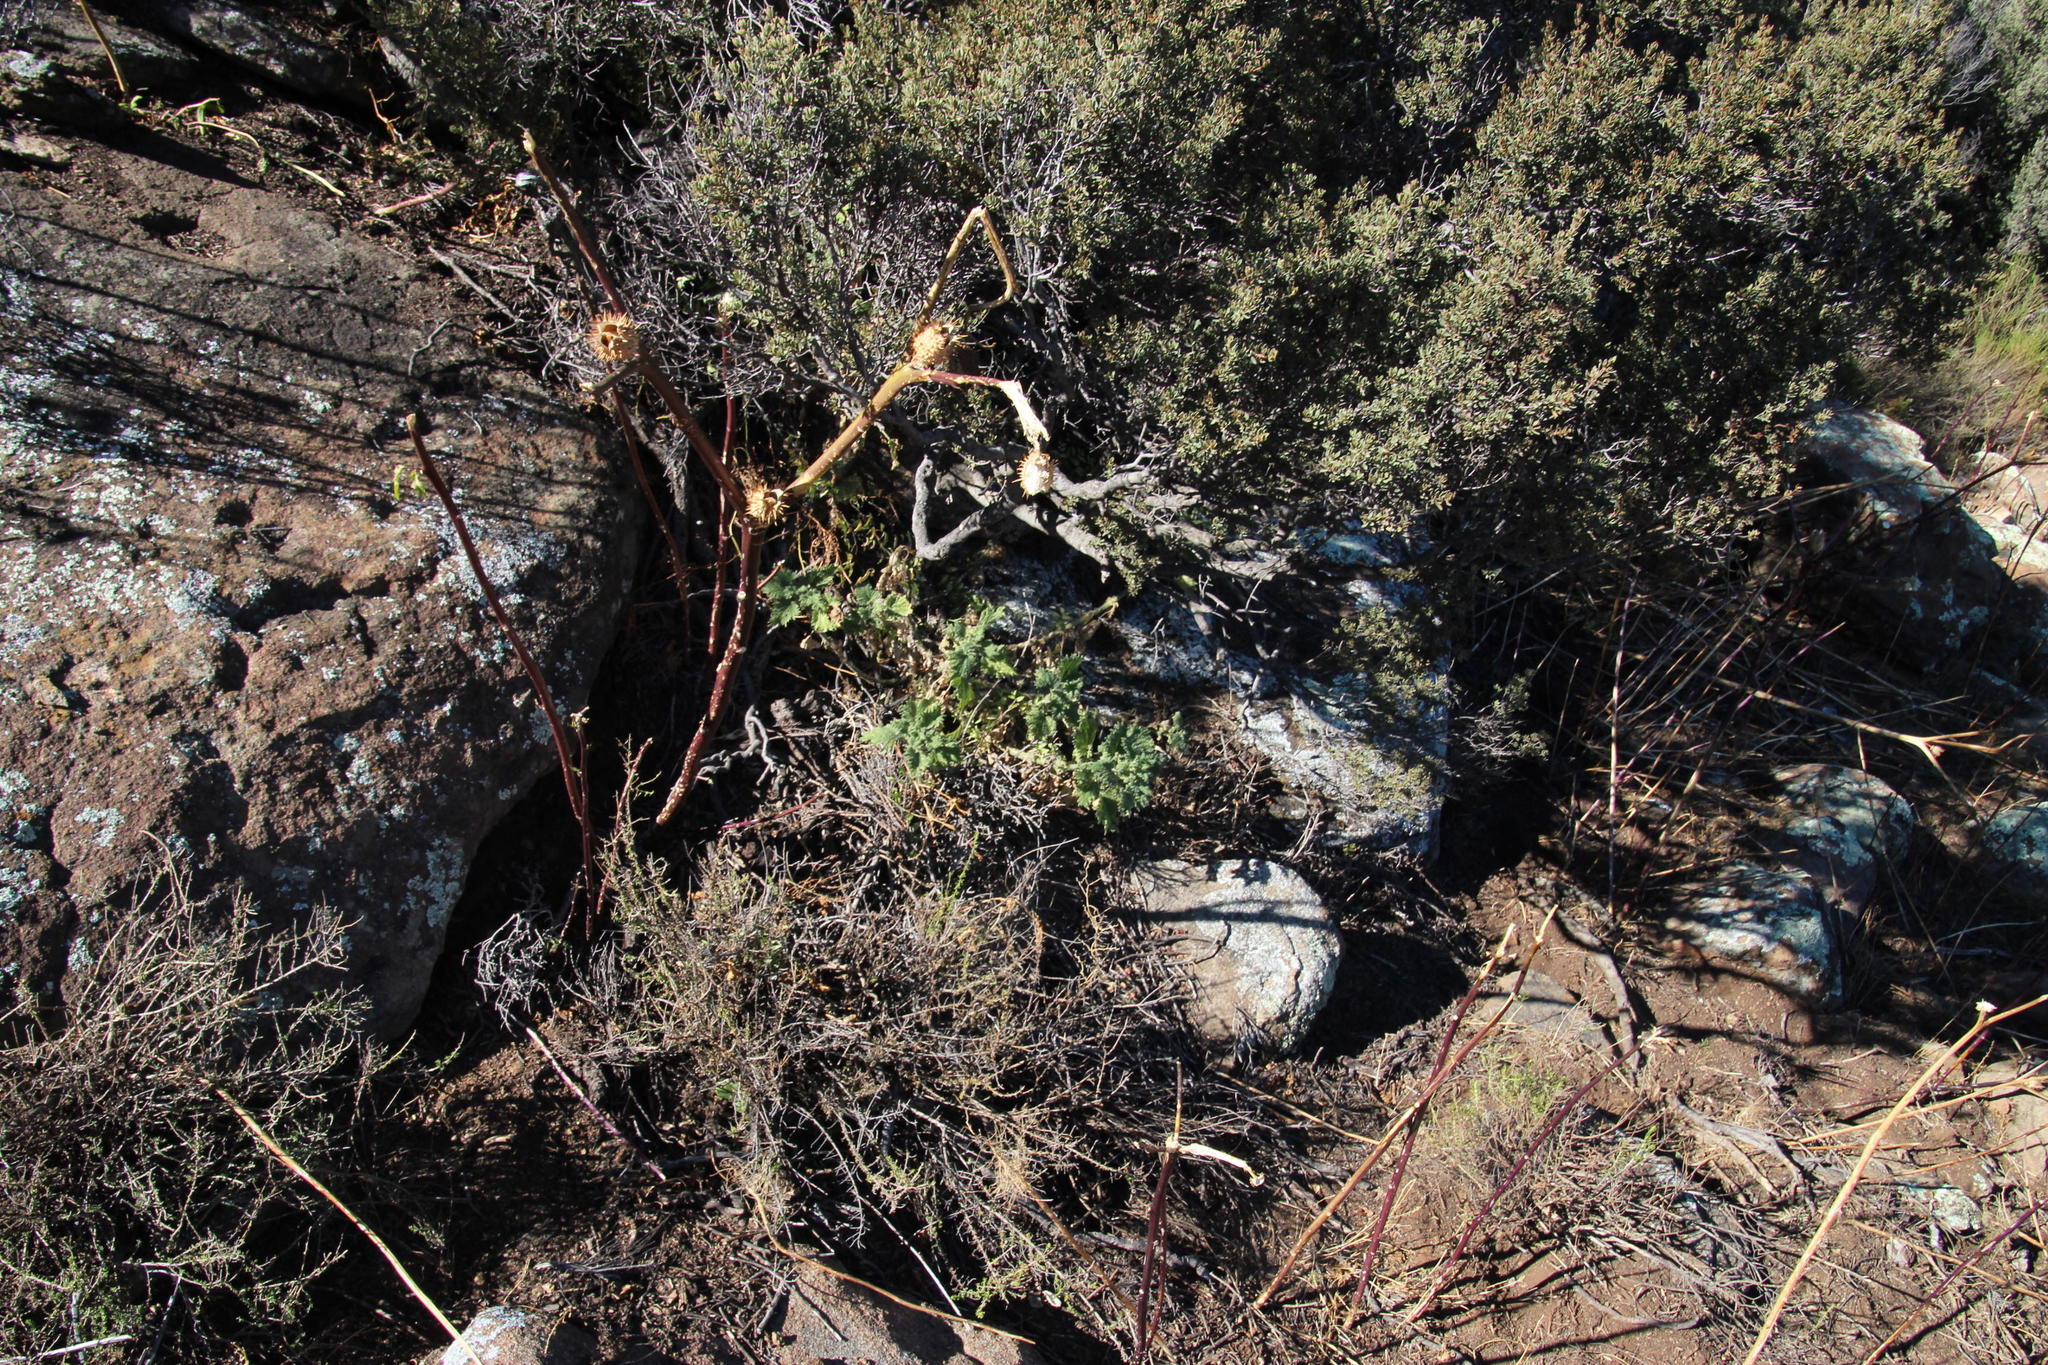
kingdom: Plantae
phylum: Tracheophyta
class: Magnoliopsida
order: Solanales
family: Solanaceae
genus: Datura
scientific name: Datura stramonium
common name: Thorn-apple
